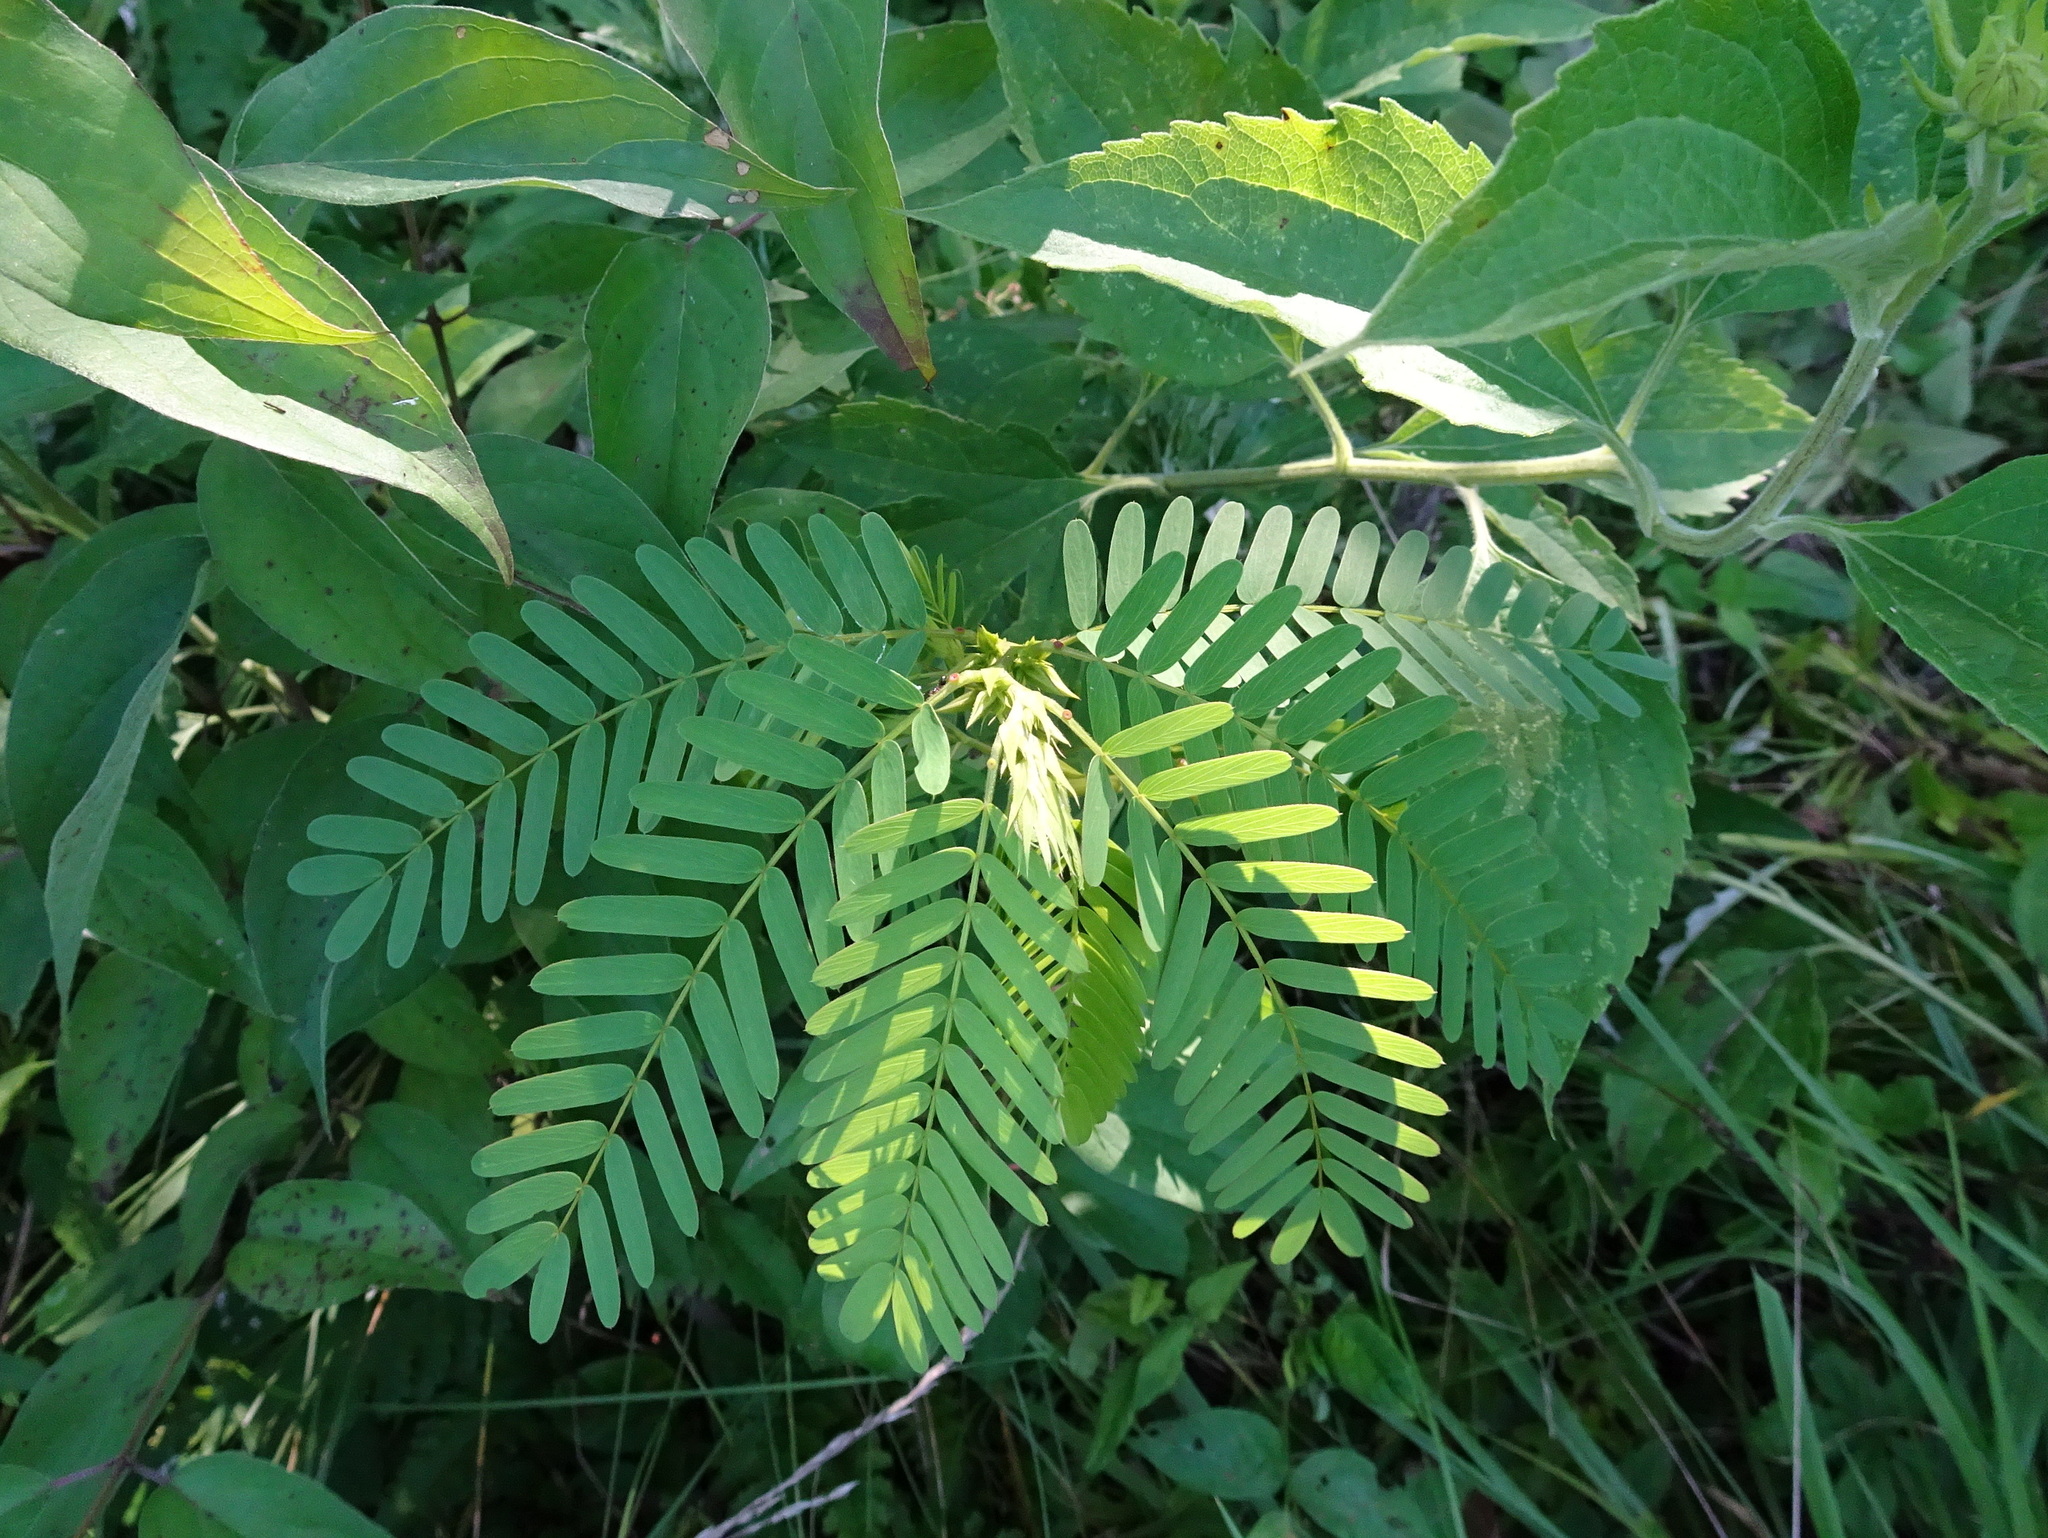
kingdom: Plantae
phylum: Tracheophyta
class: Magnoliopsida
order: Fabales
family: Fabaceae
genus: Chamaecrista
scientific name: Chamaecrista fasciculata
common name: Golden cassia
